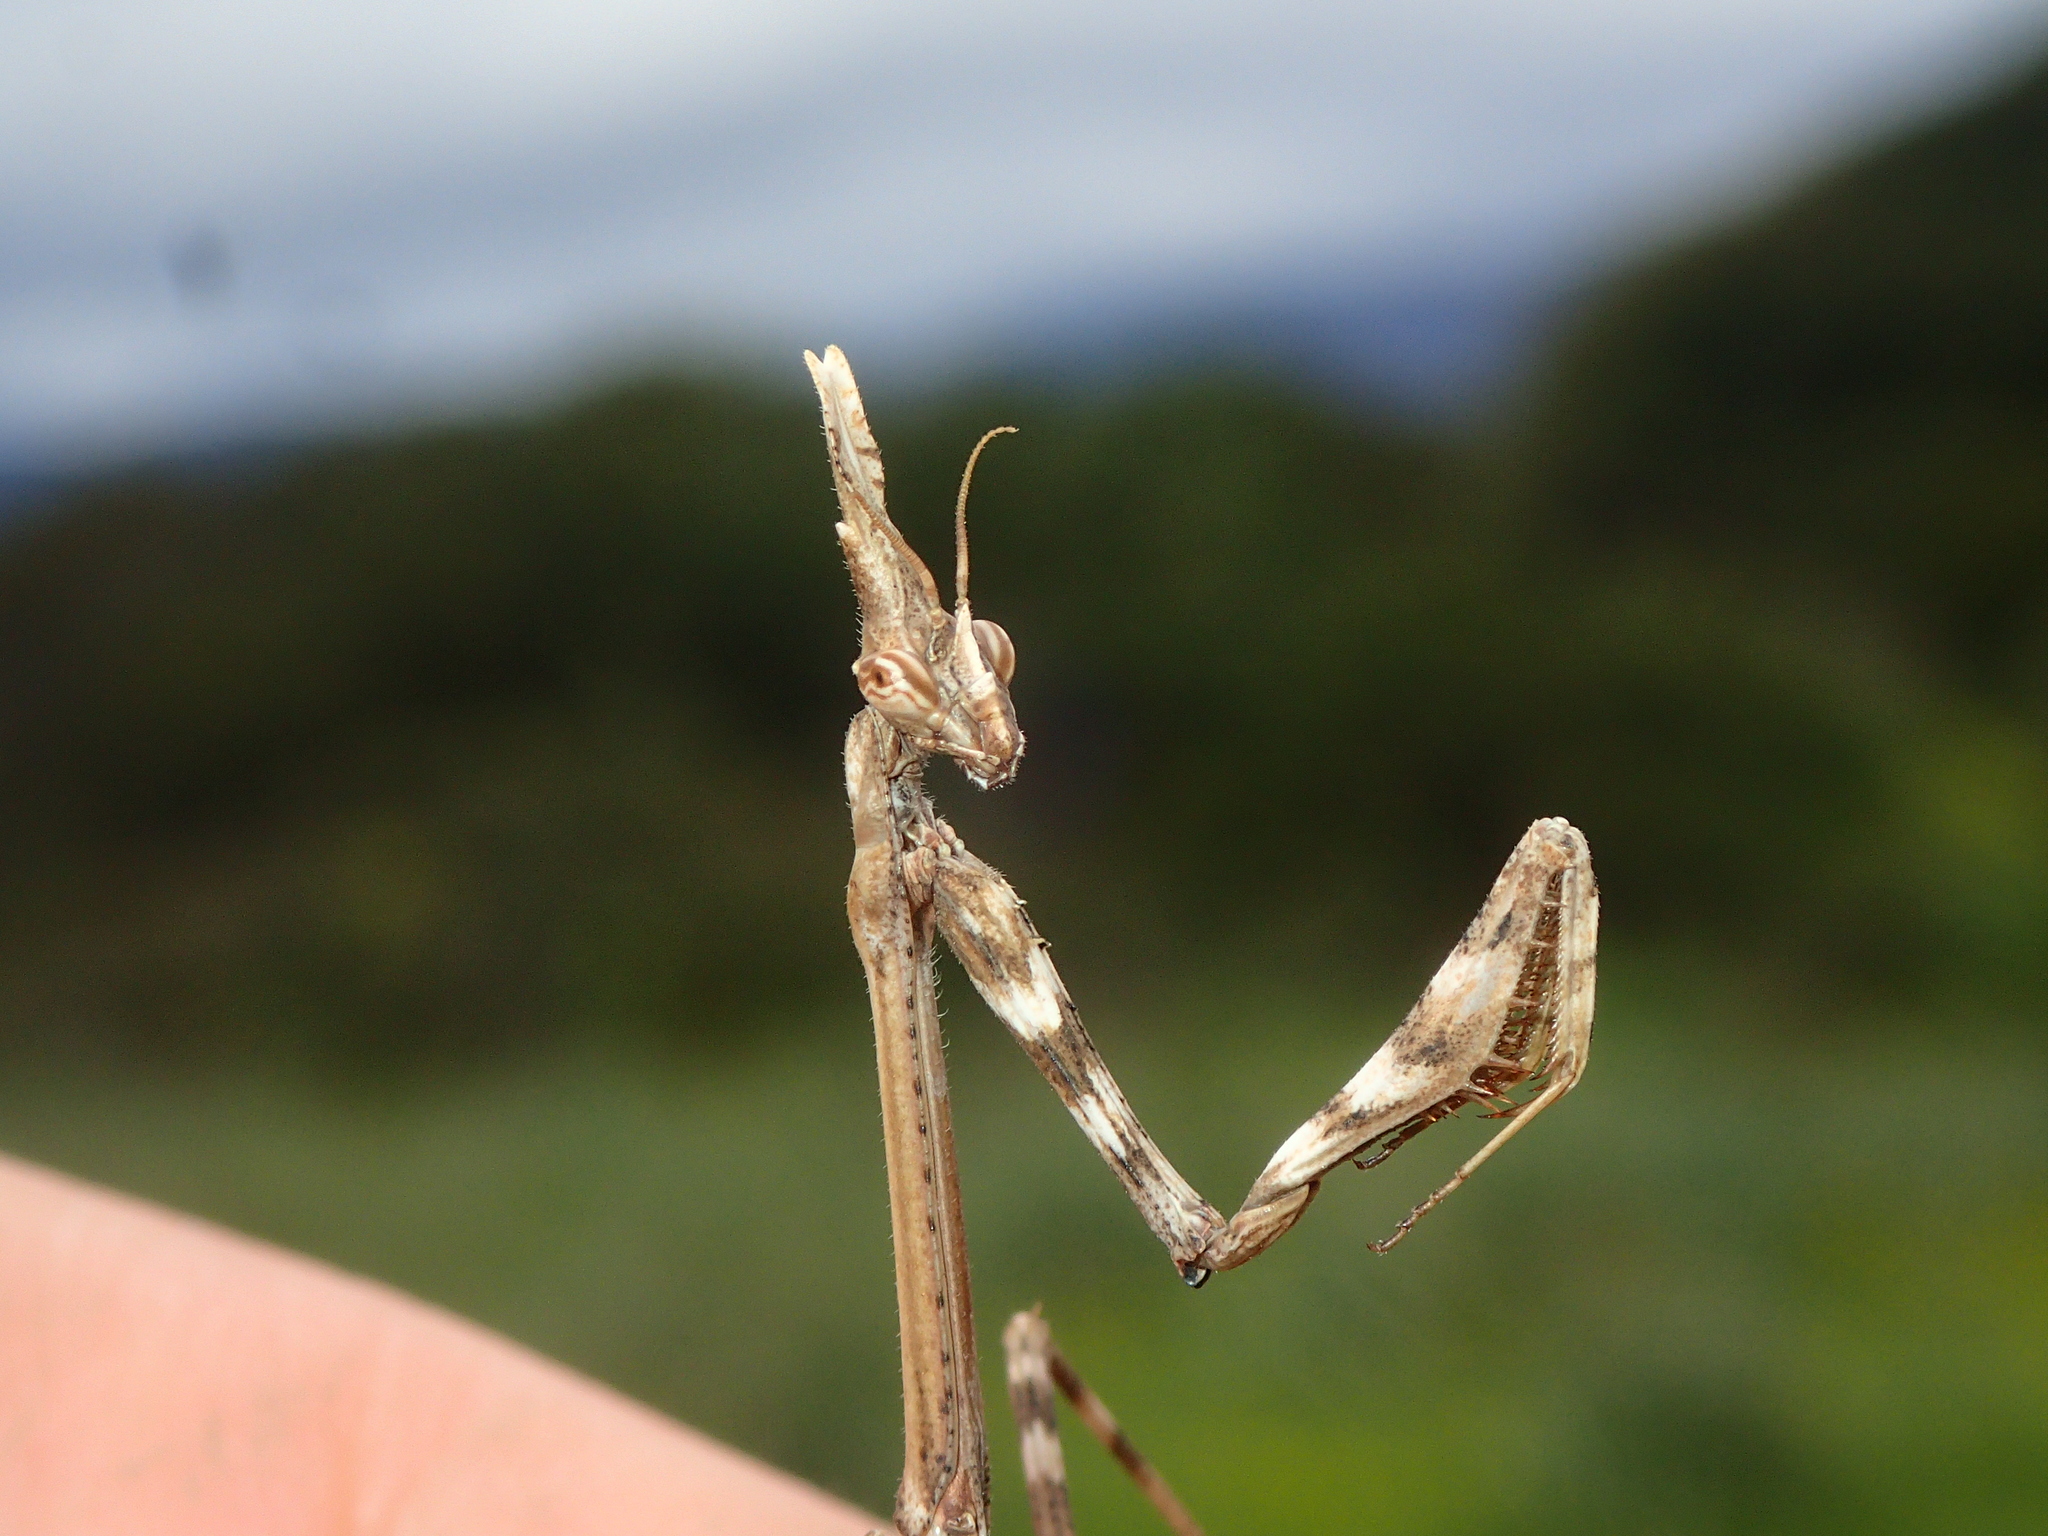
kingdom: Animalia
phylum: Arthropoda
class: Insecta
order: Mantodea
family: Empusidae
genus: Empusa
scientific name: Empusa pennata
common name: Conehead mantis
